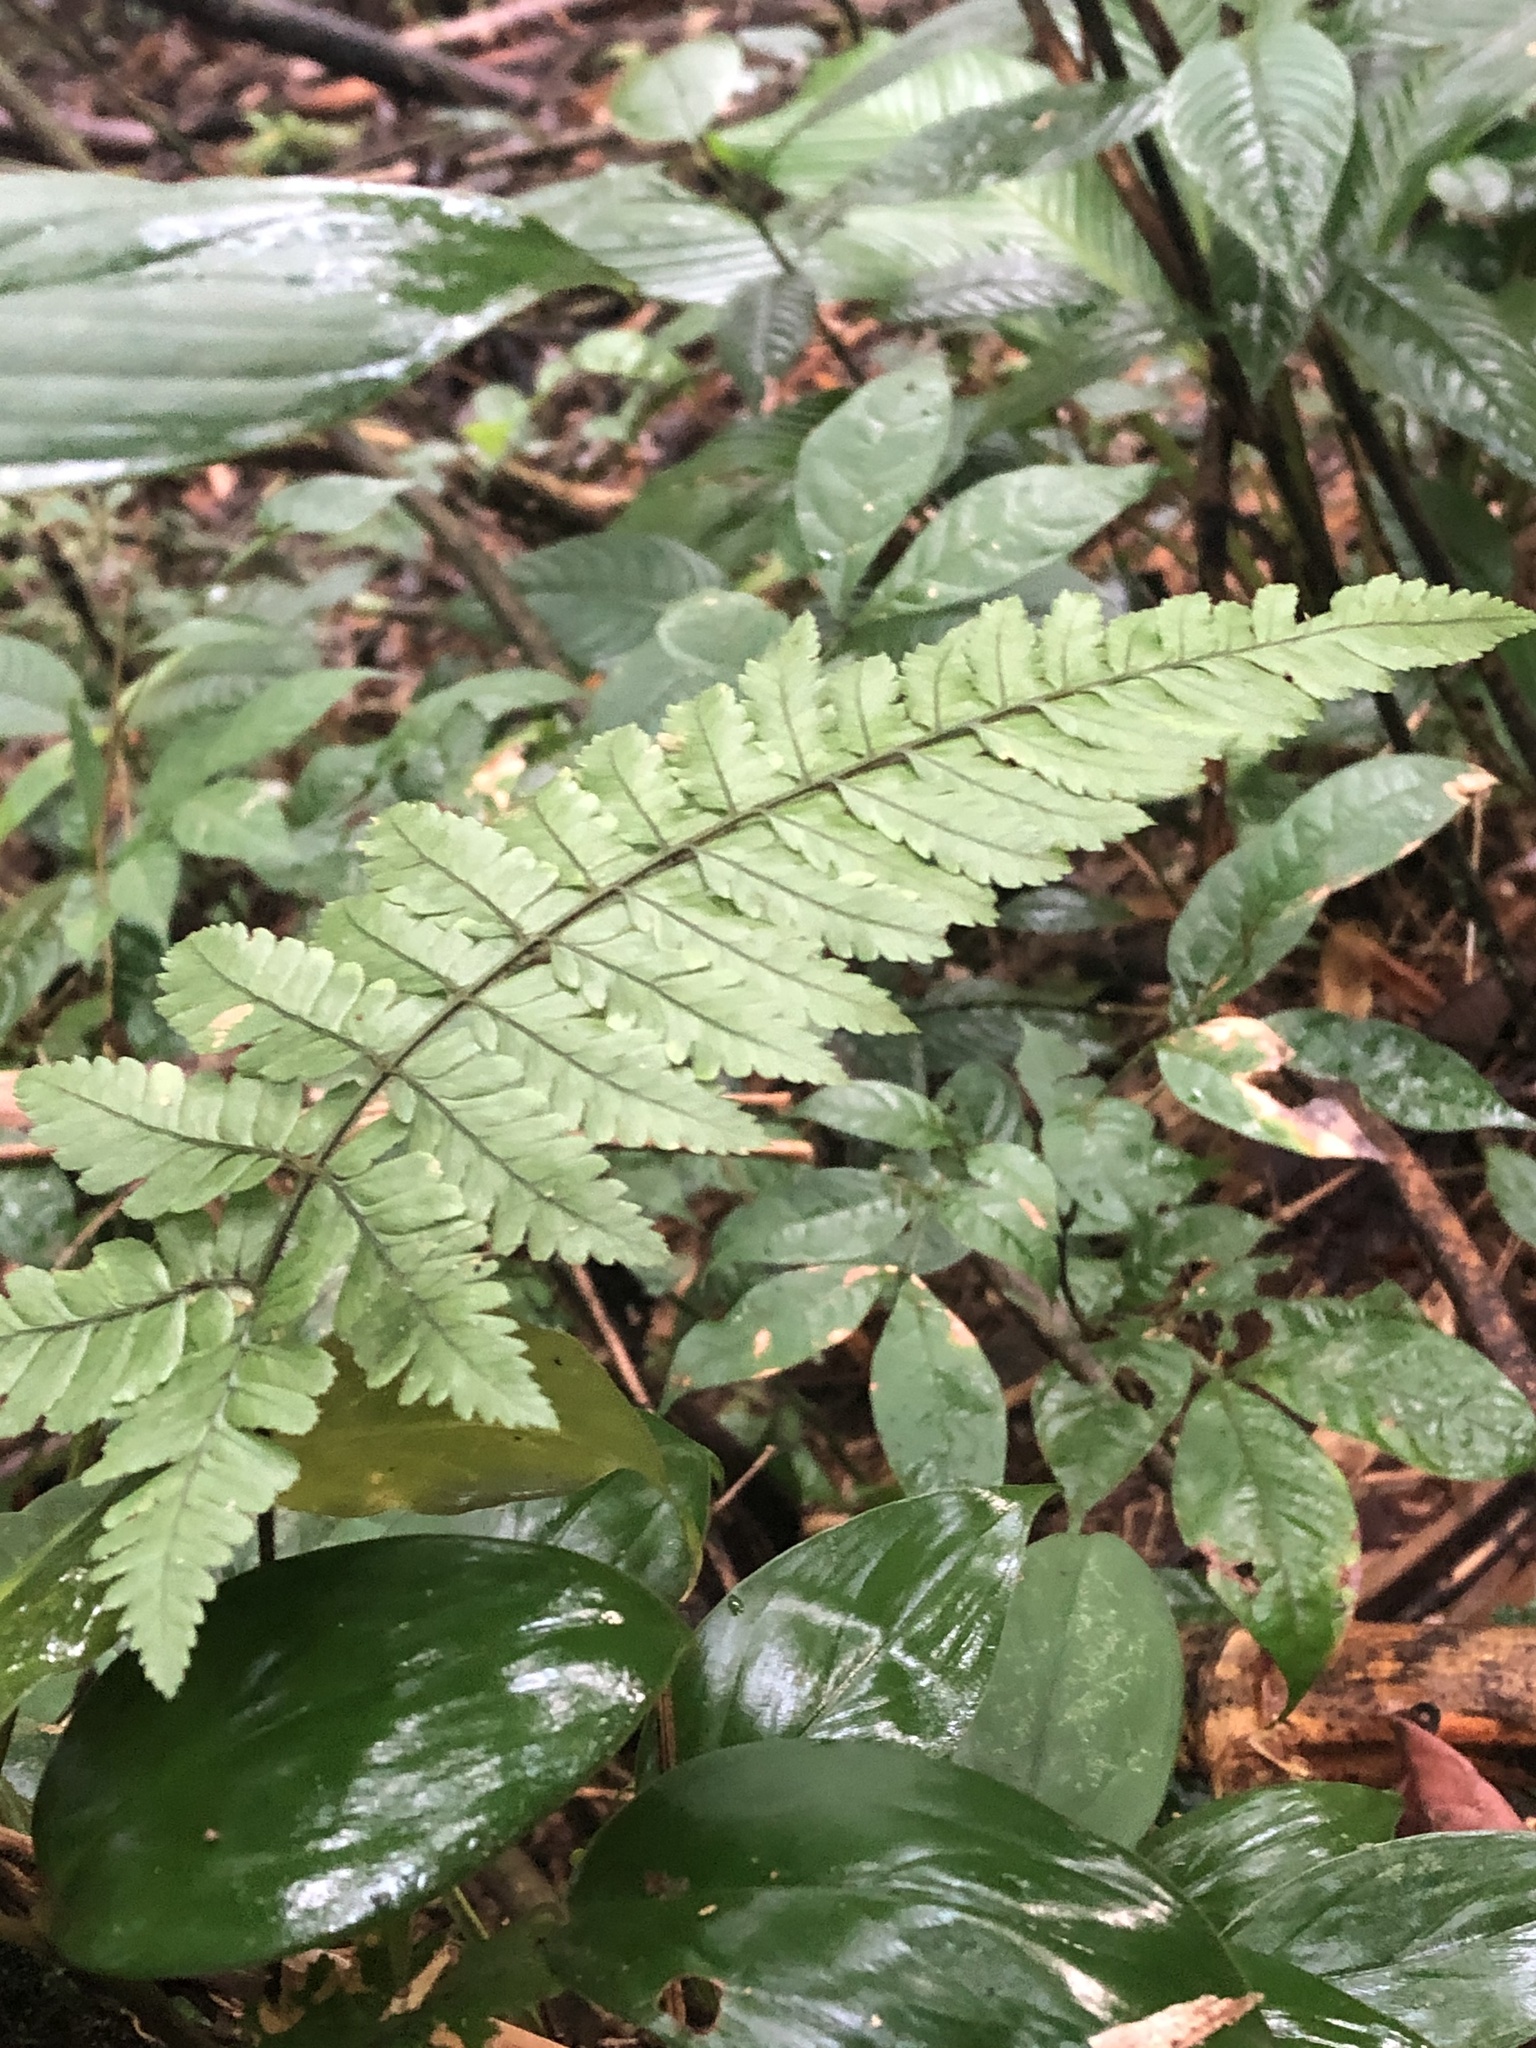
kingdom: Plantae
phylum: Tracheophyta
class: Polypodiopsida
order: Polypodiales
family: Dryopteridaceae
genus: Polybotrya
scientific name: Polybotrya osmundacea
